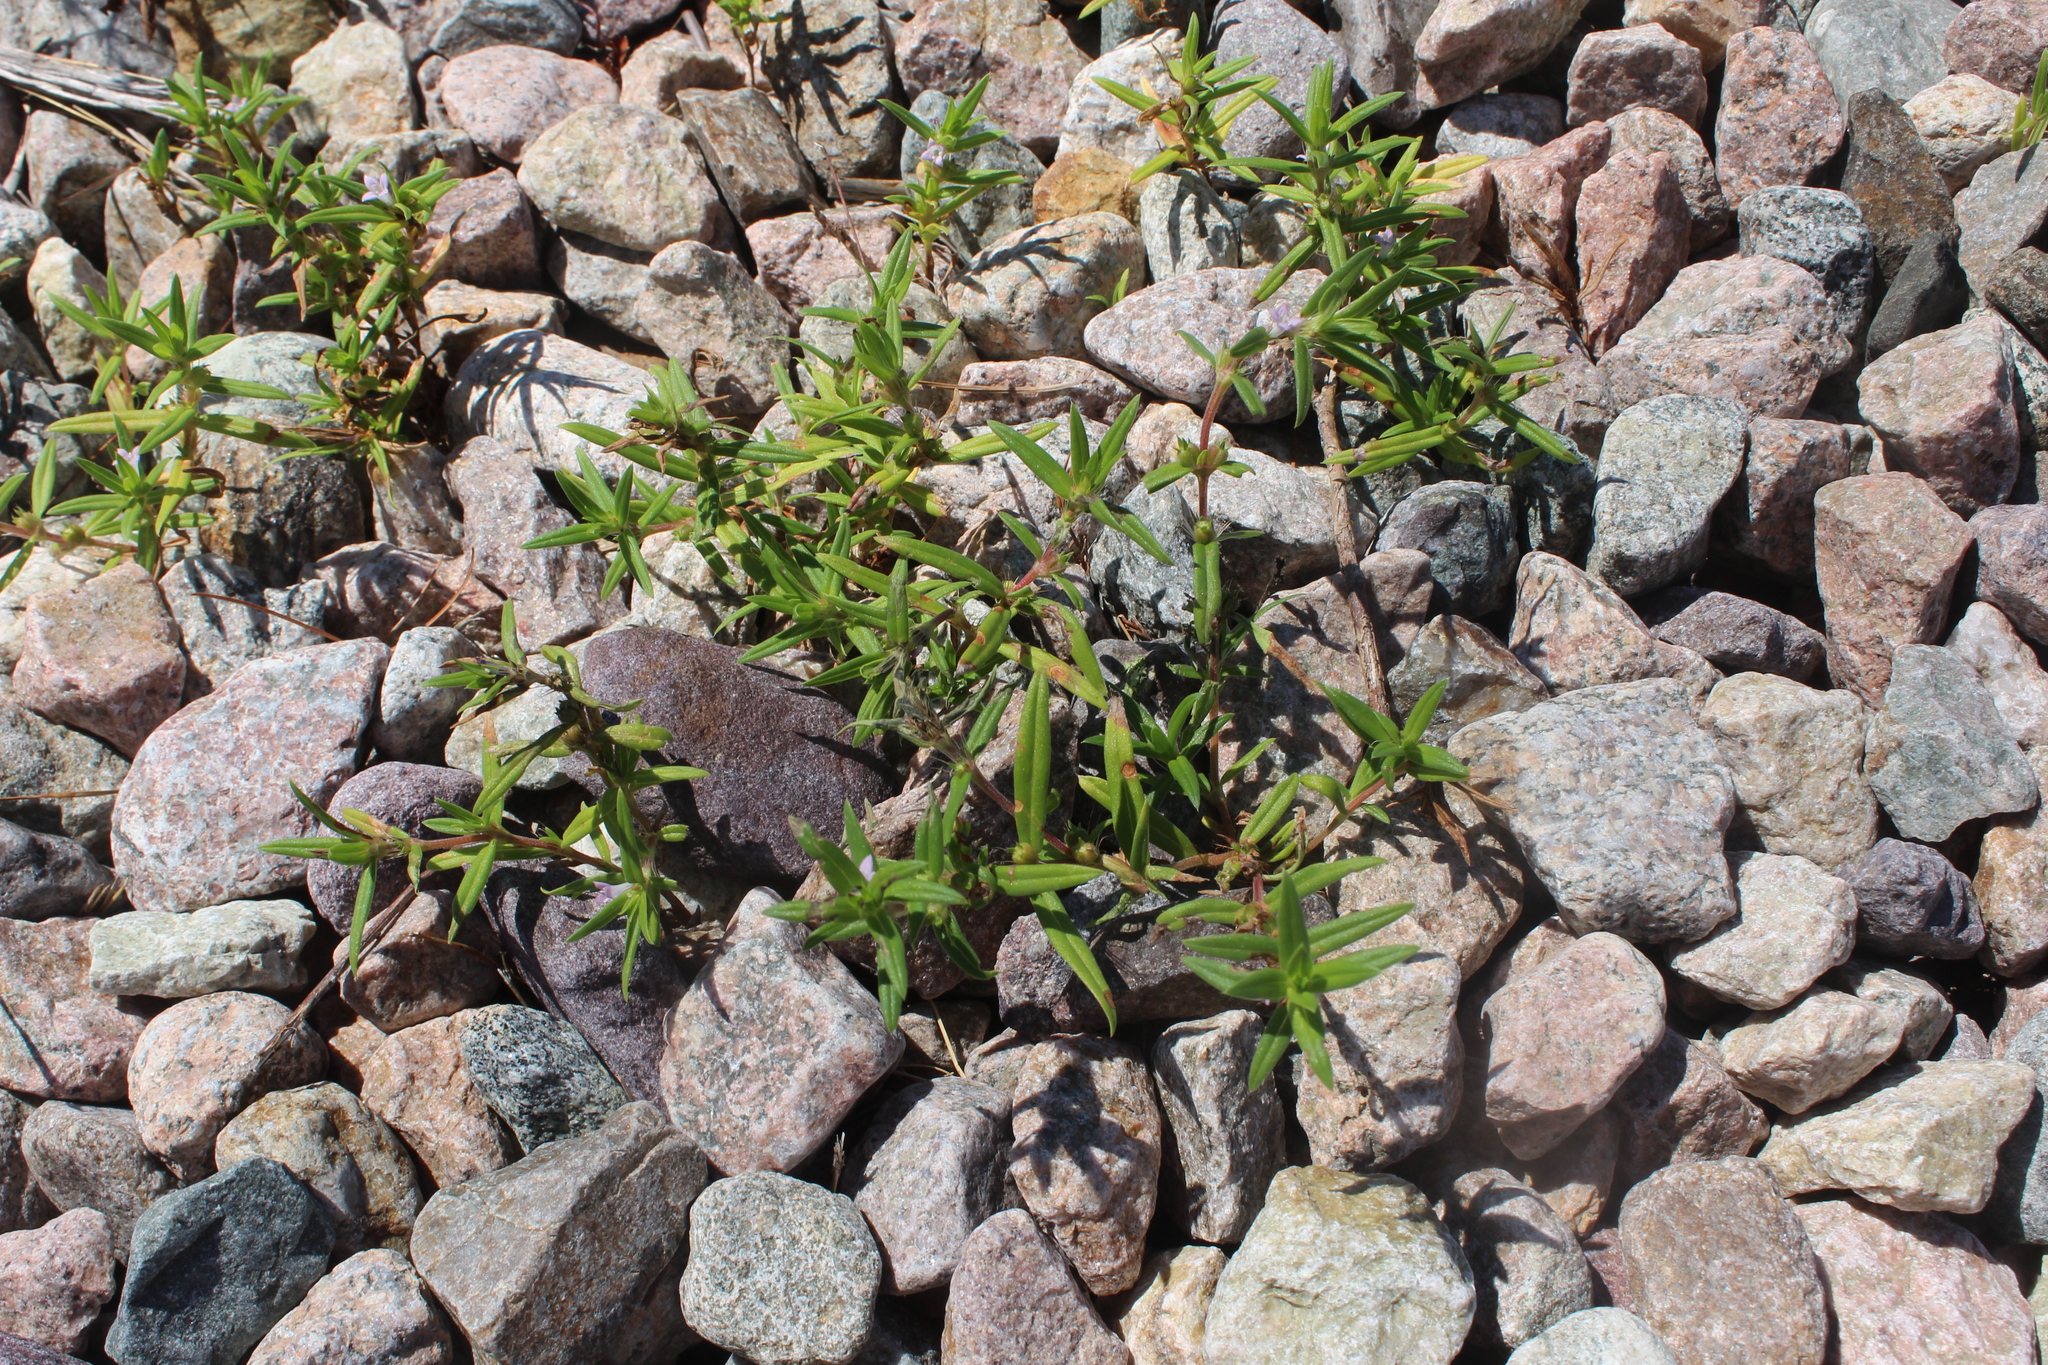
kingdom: Plantae
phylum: Tracheophyta
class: Magnoliopsida
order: Gentianales
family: Rubiaceae
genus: Hexasepalum
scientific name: Hexasepalum teres
